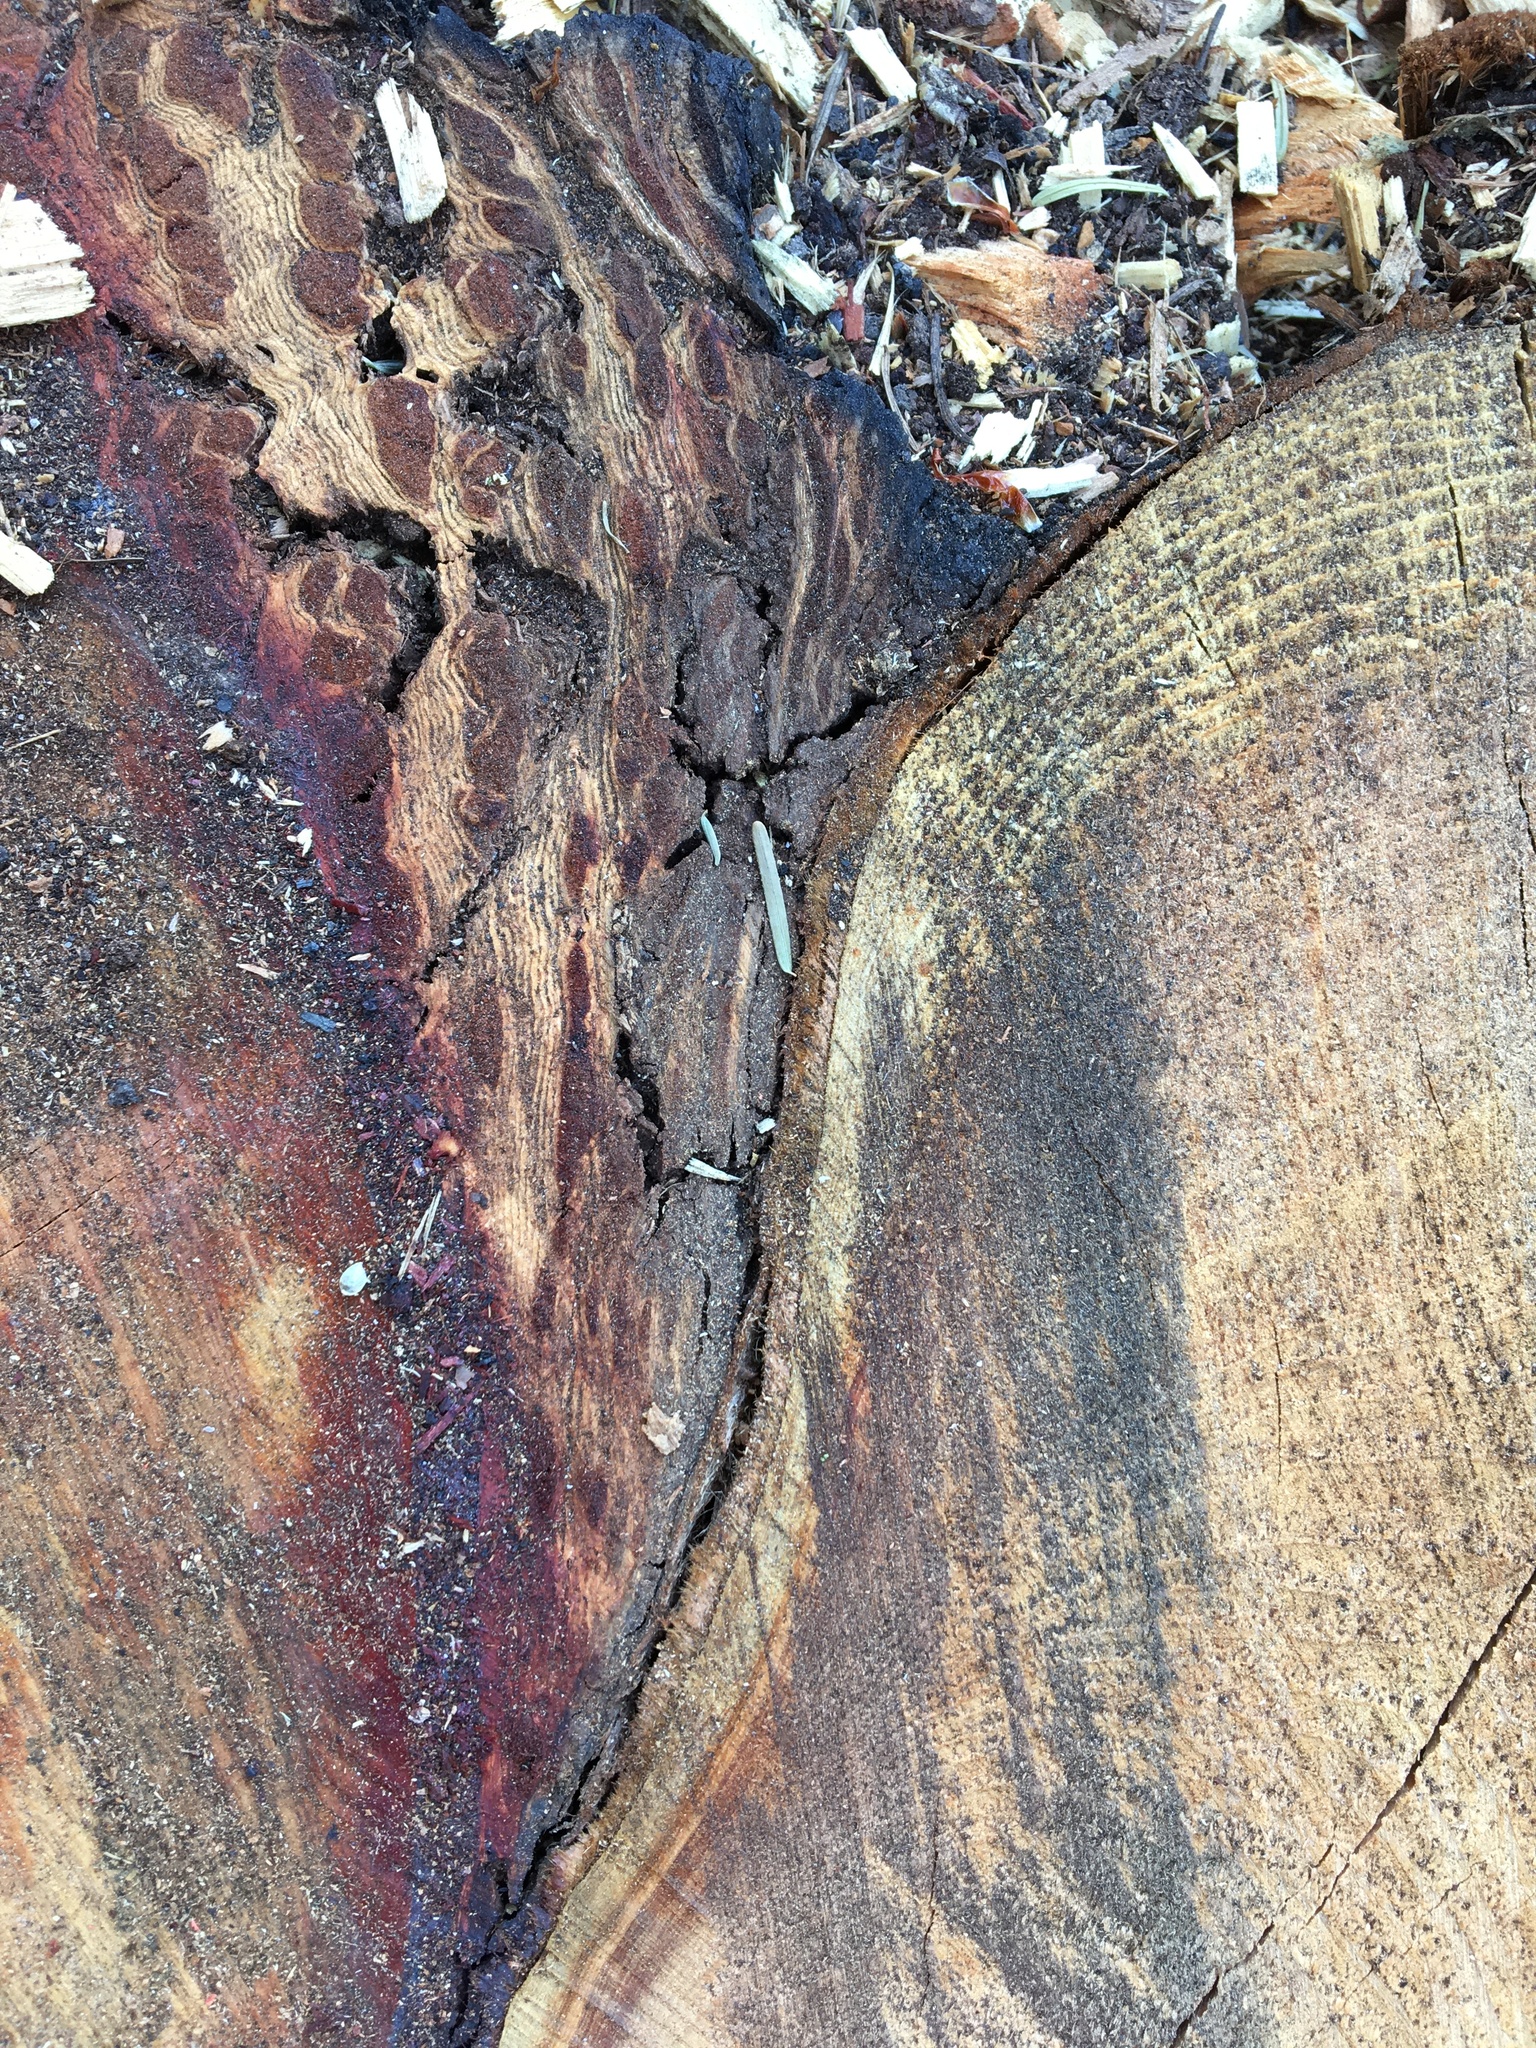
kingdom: Plantae
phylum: Tracheophyta
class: Pinopsida
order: Pinales
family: Pinaceae
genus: Pseudotsuga
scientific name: Pseudotsuga menziesii
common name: Douglas fir
